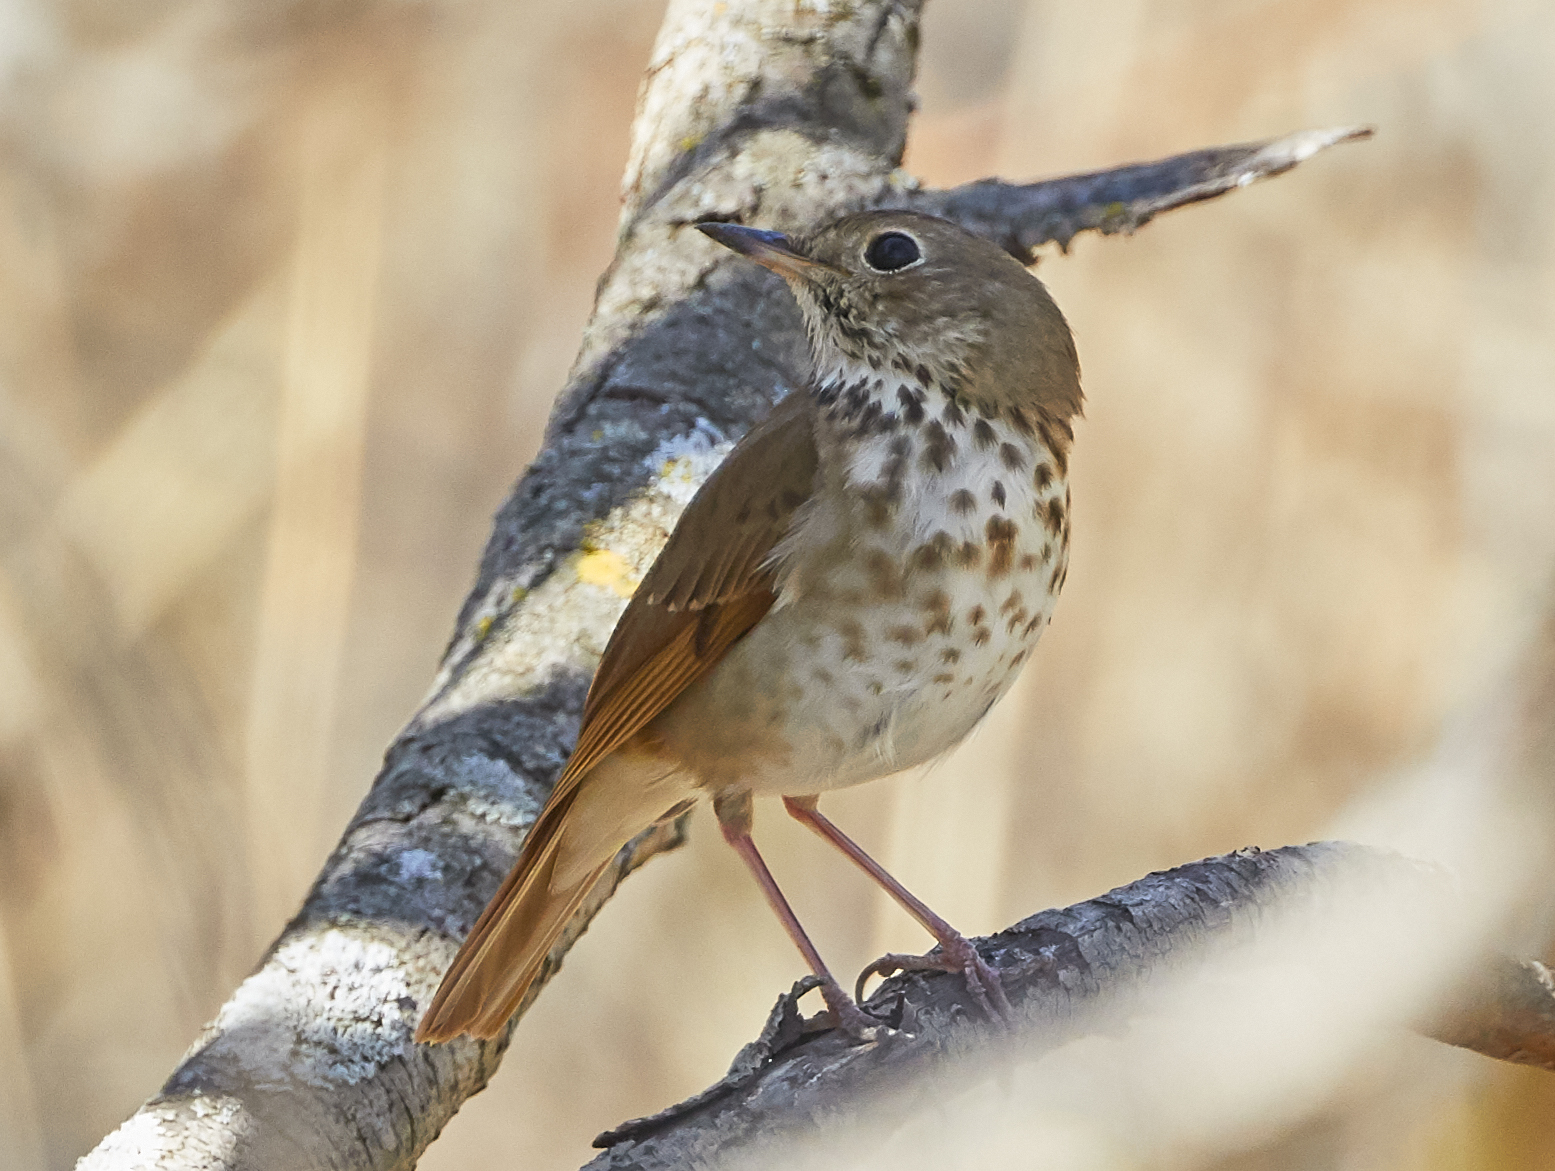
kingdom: Animalia
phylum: Chordata
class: Aves
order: Passeriformes
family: Turdidae
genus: Catharus
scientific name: Catharus guttatus
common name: Hermit thrush
